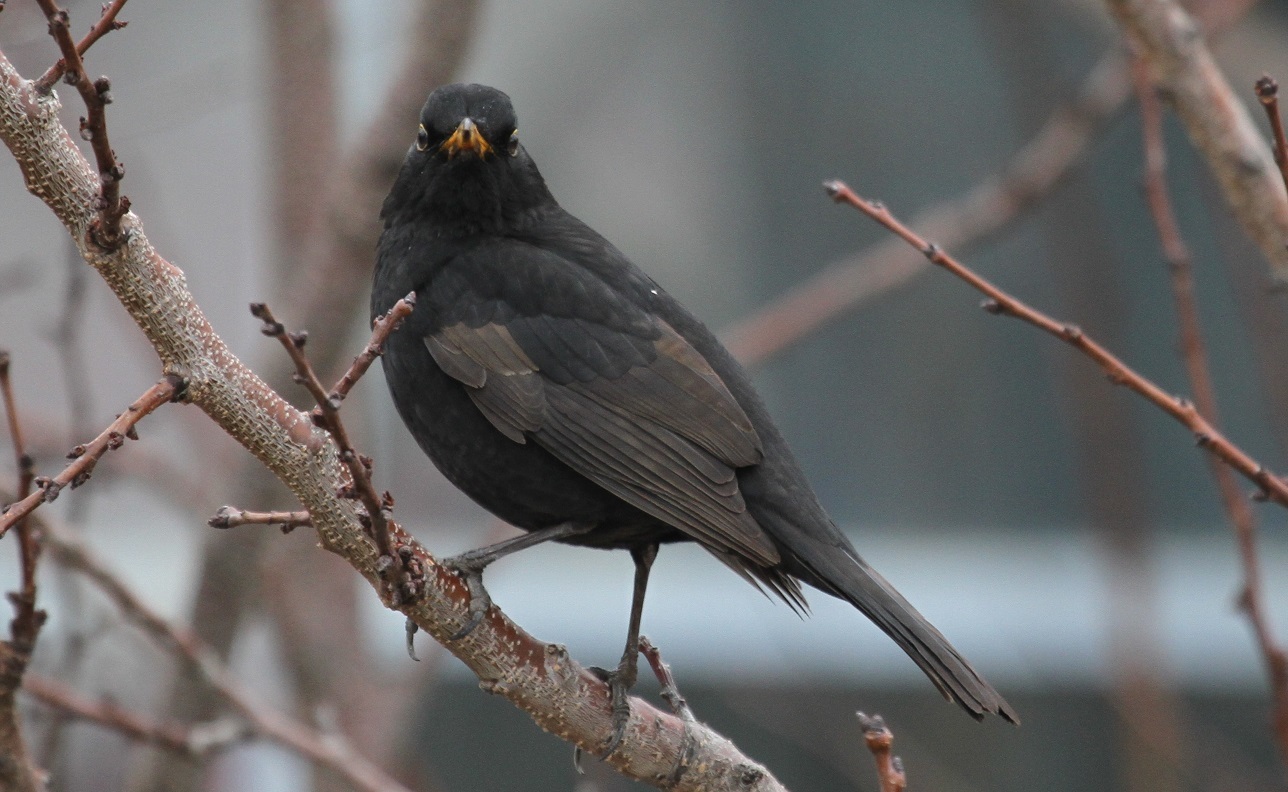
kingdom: Animalia
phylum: Chordata
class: Aves
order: Passeriformes
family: Turdidae
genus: Turdus
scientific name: Turdus merula
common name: Common blackbird
